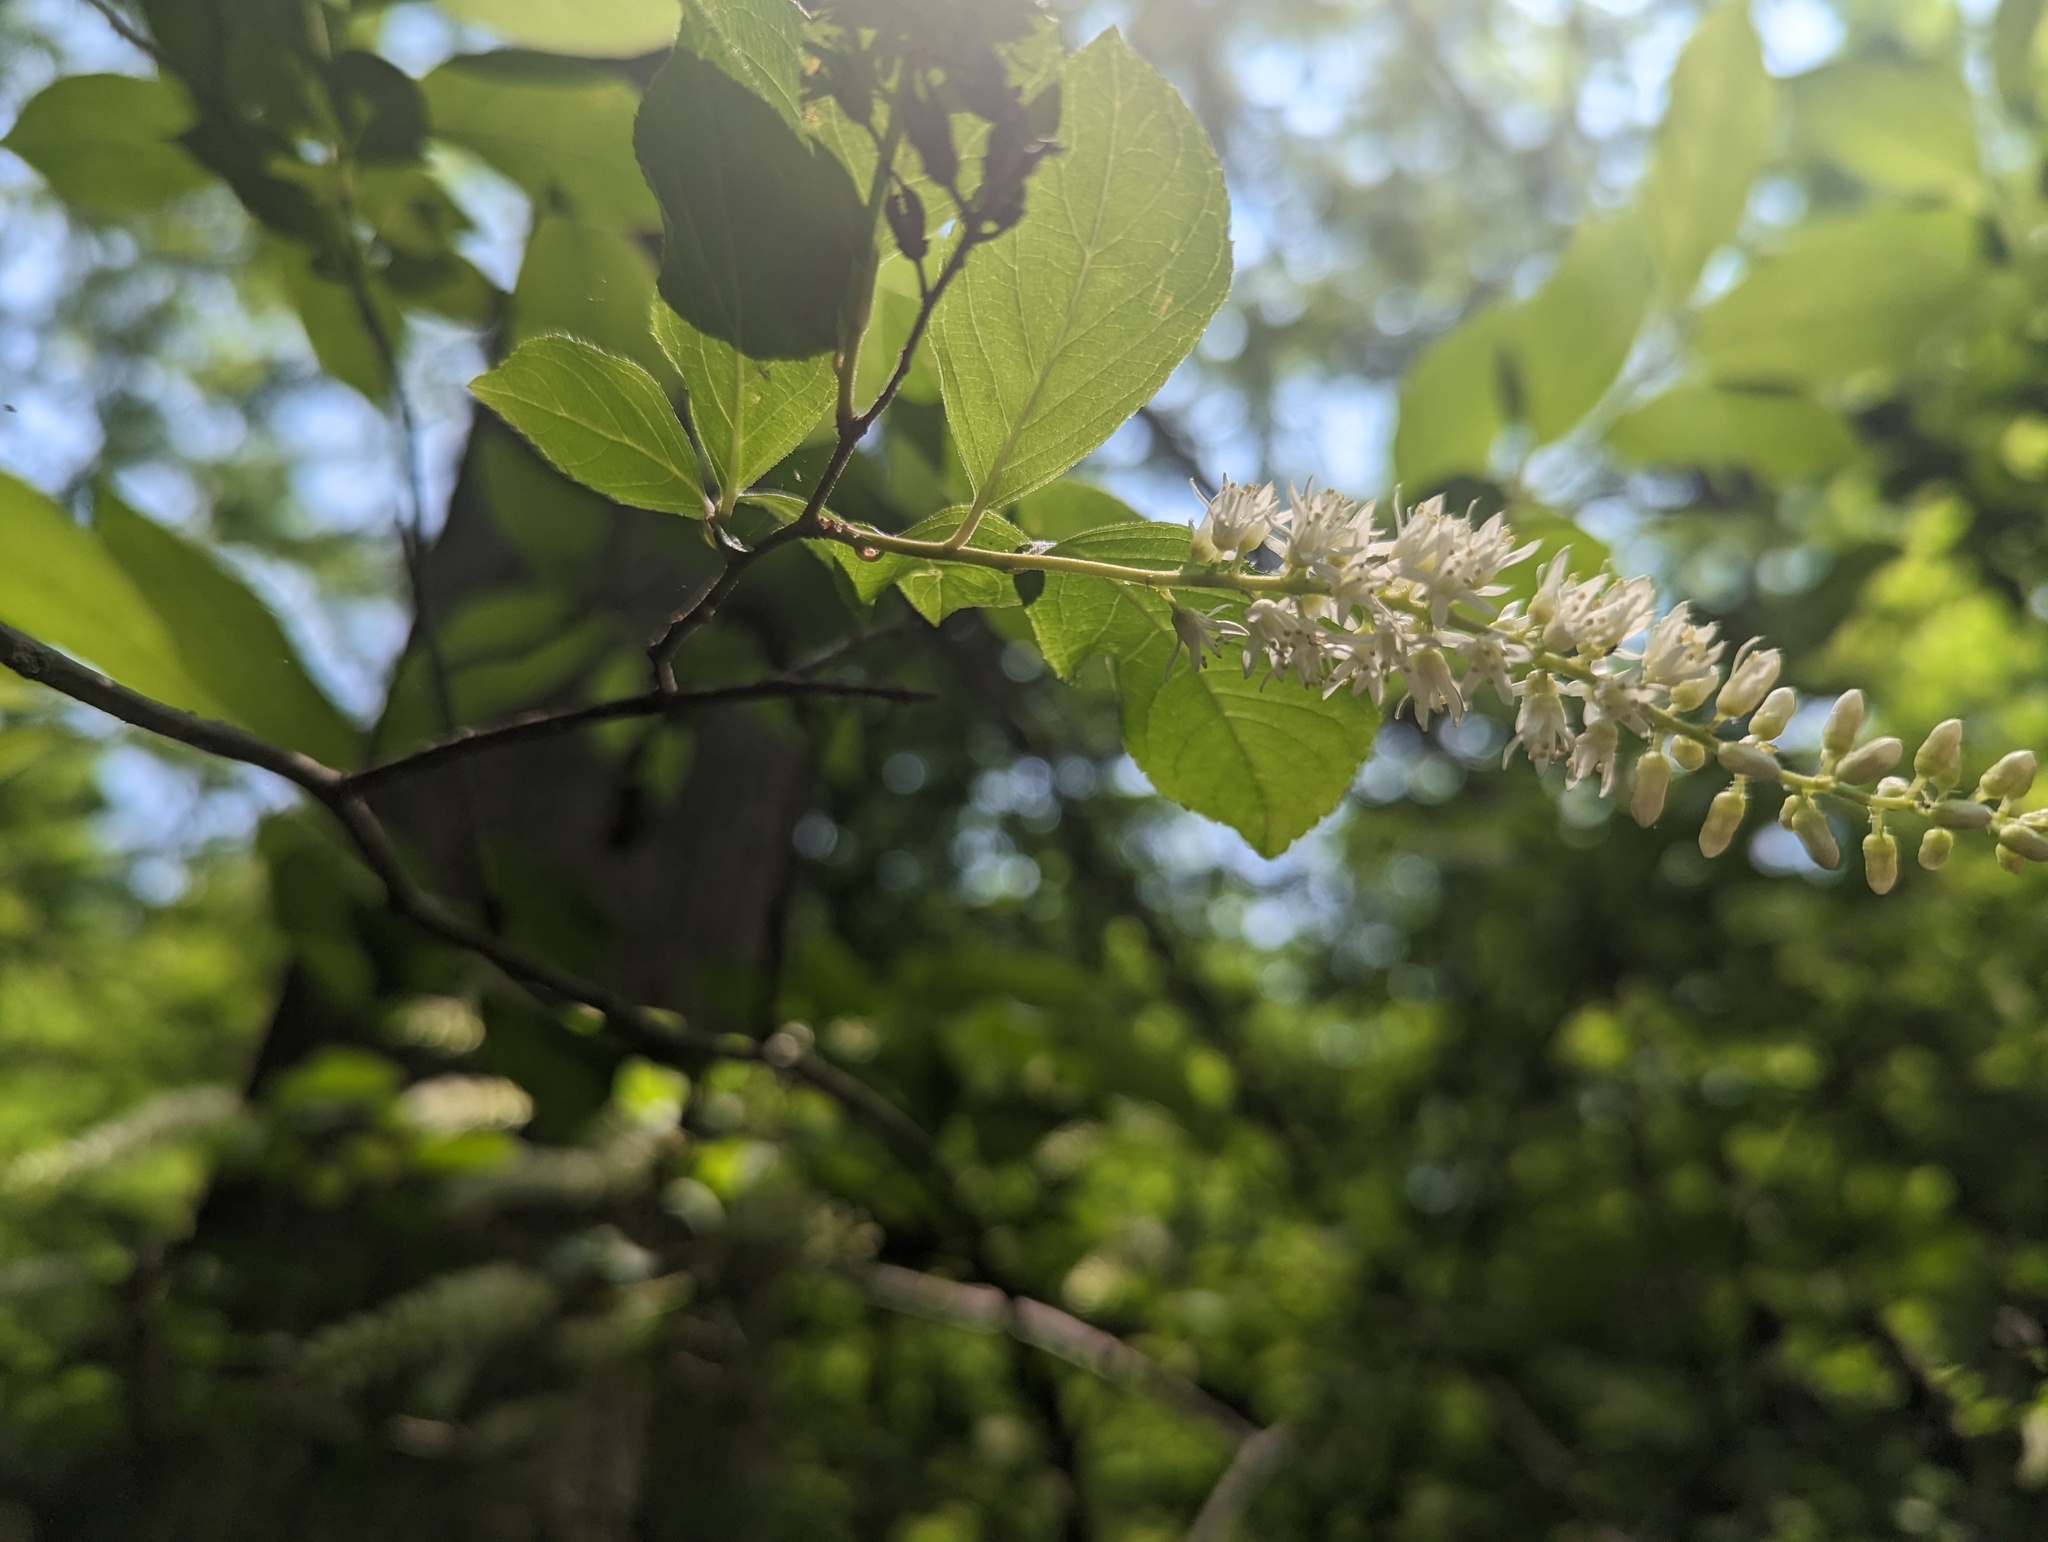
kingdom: Plantae
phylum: Tracheophyta
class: Magnoliopsida
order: Saxifragales
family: Iteaceae
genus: Itea
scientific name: Itea virginica
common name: Sweetspire
